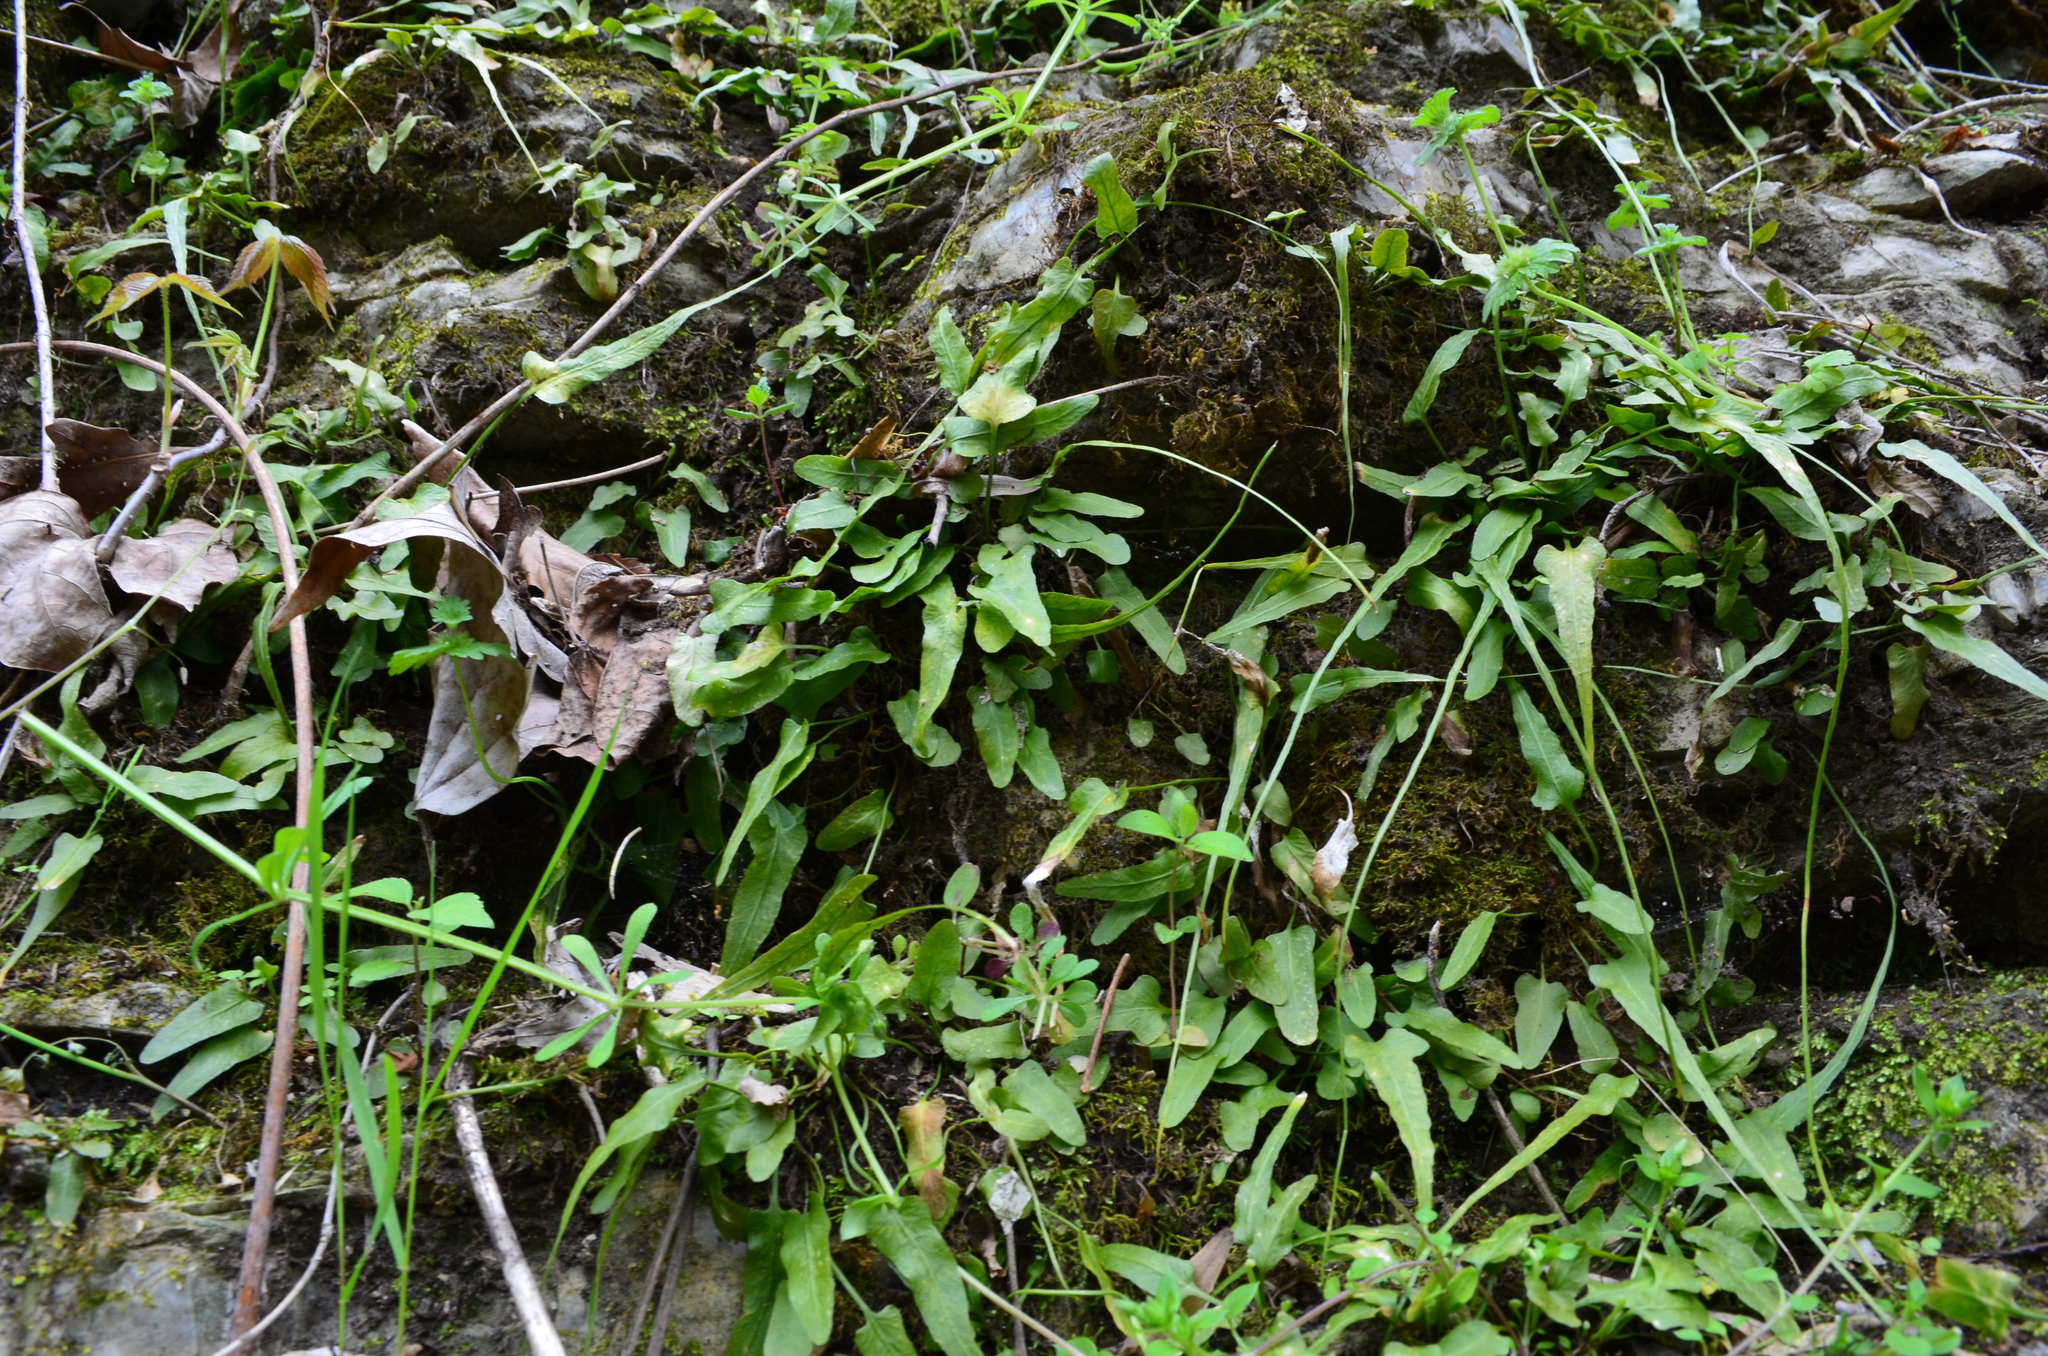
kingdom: Plantae
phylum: Tracheophyta
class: Polypodiopsida
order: Polypodiales
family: Aspleniaceae
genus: Asplenium
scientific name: Asplenium rhizophyllum
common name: Walking fern
